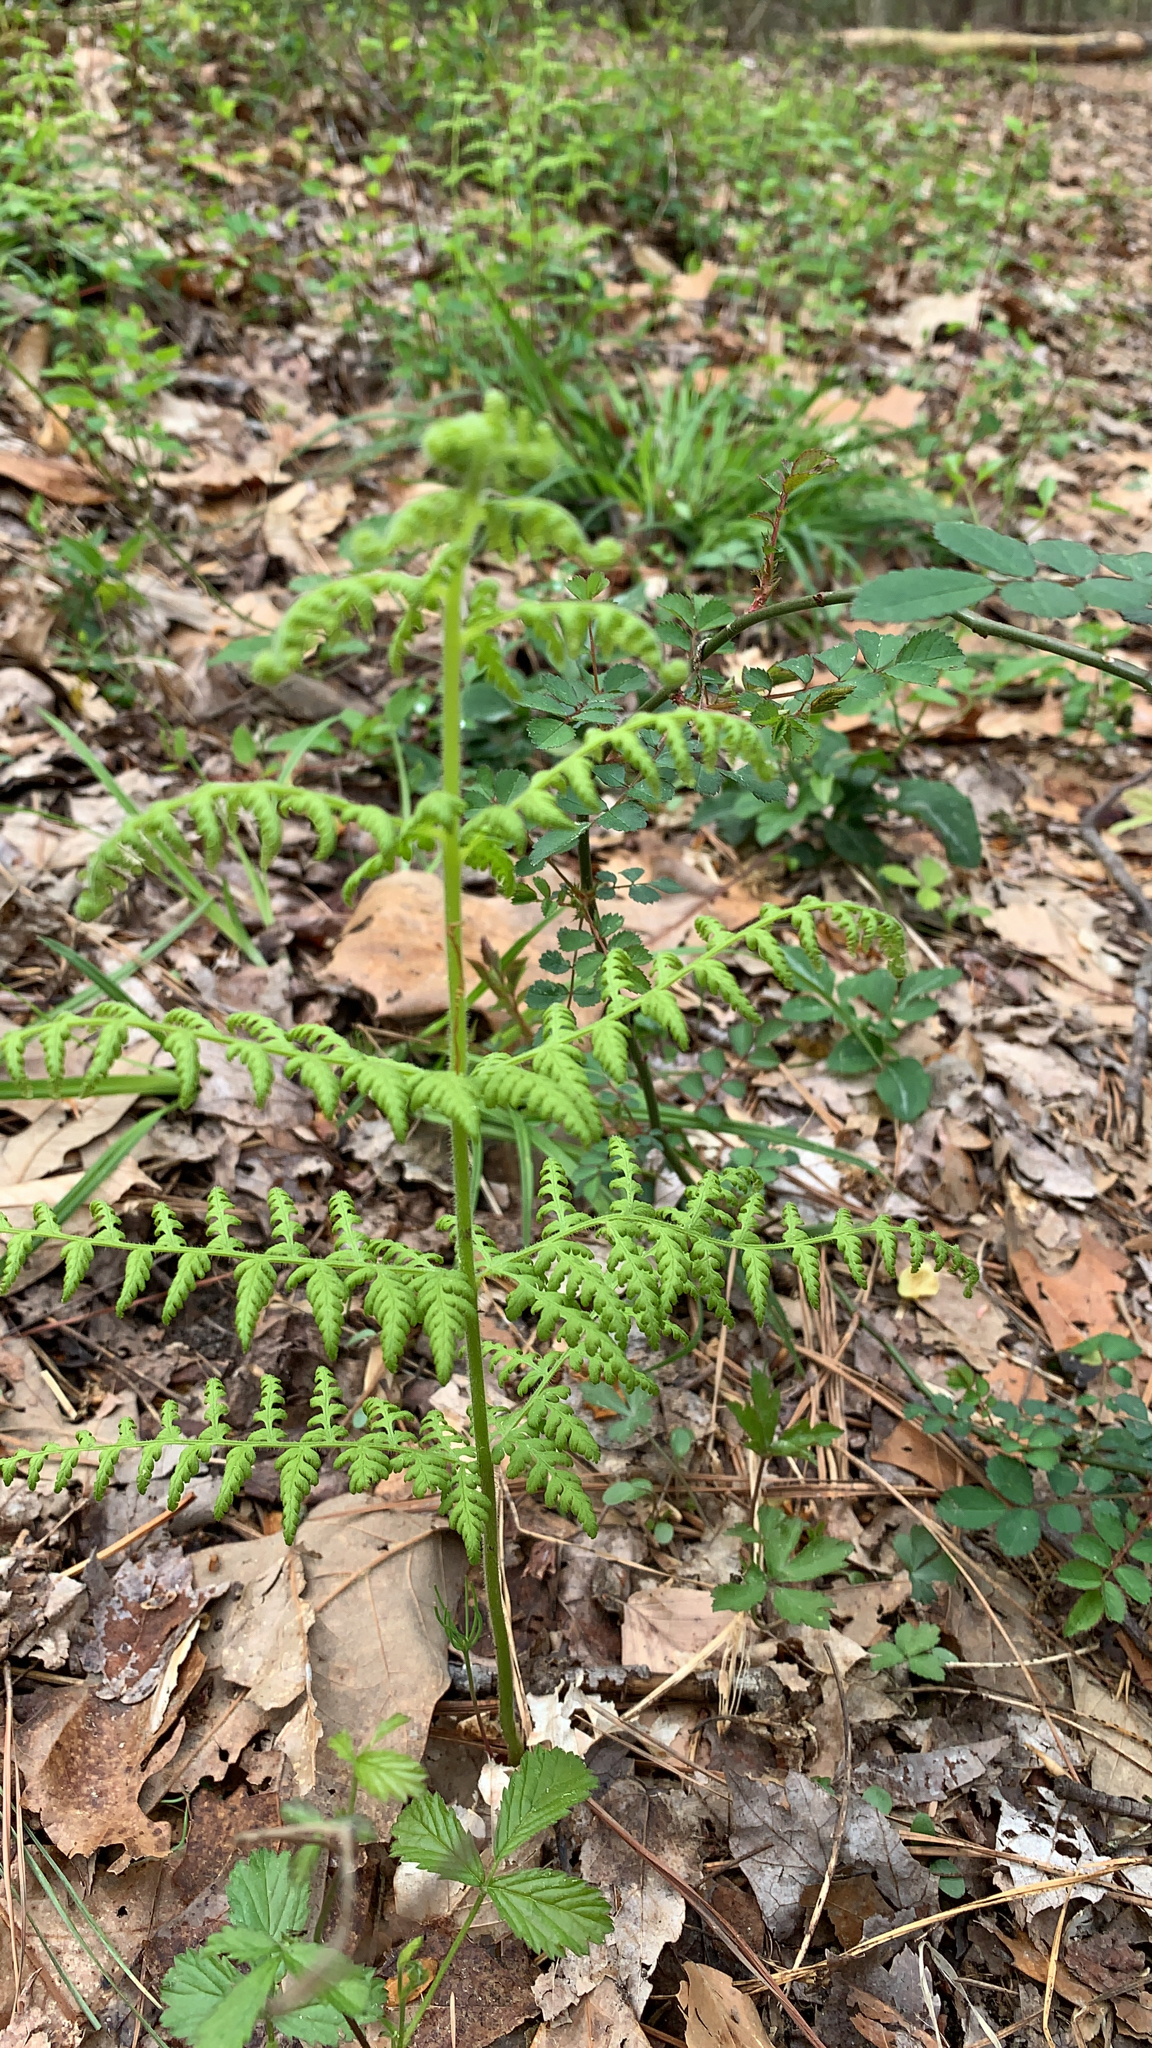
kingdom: Plantae
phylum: Tracheophyta
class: Polypodiopsida
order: Polypodiales
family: Dennstaedtiaceae
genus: Sitobolium
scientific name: Sitobolium punctilobum
